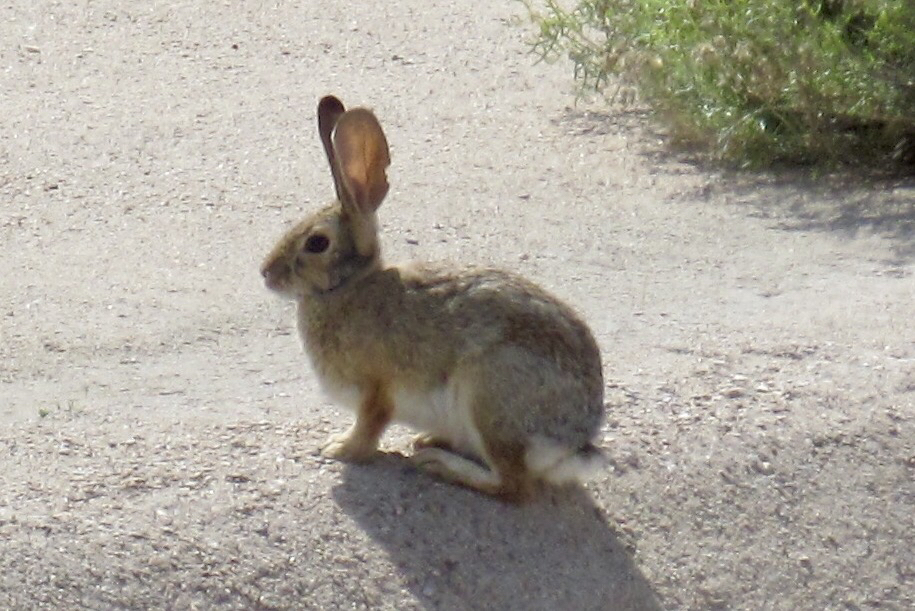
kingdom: Animalia
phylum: Chordata
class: Mammalia
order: Lagomorpha
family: Leporidae
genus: Sylvilagus
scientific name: Sylvilagus audubonii
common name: Desert cottontail
